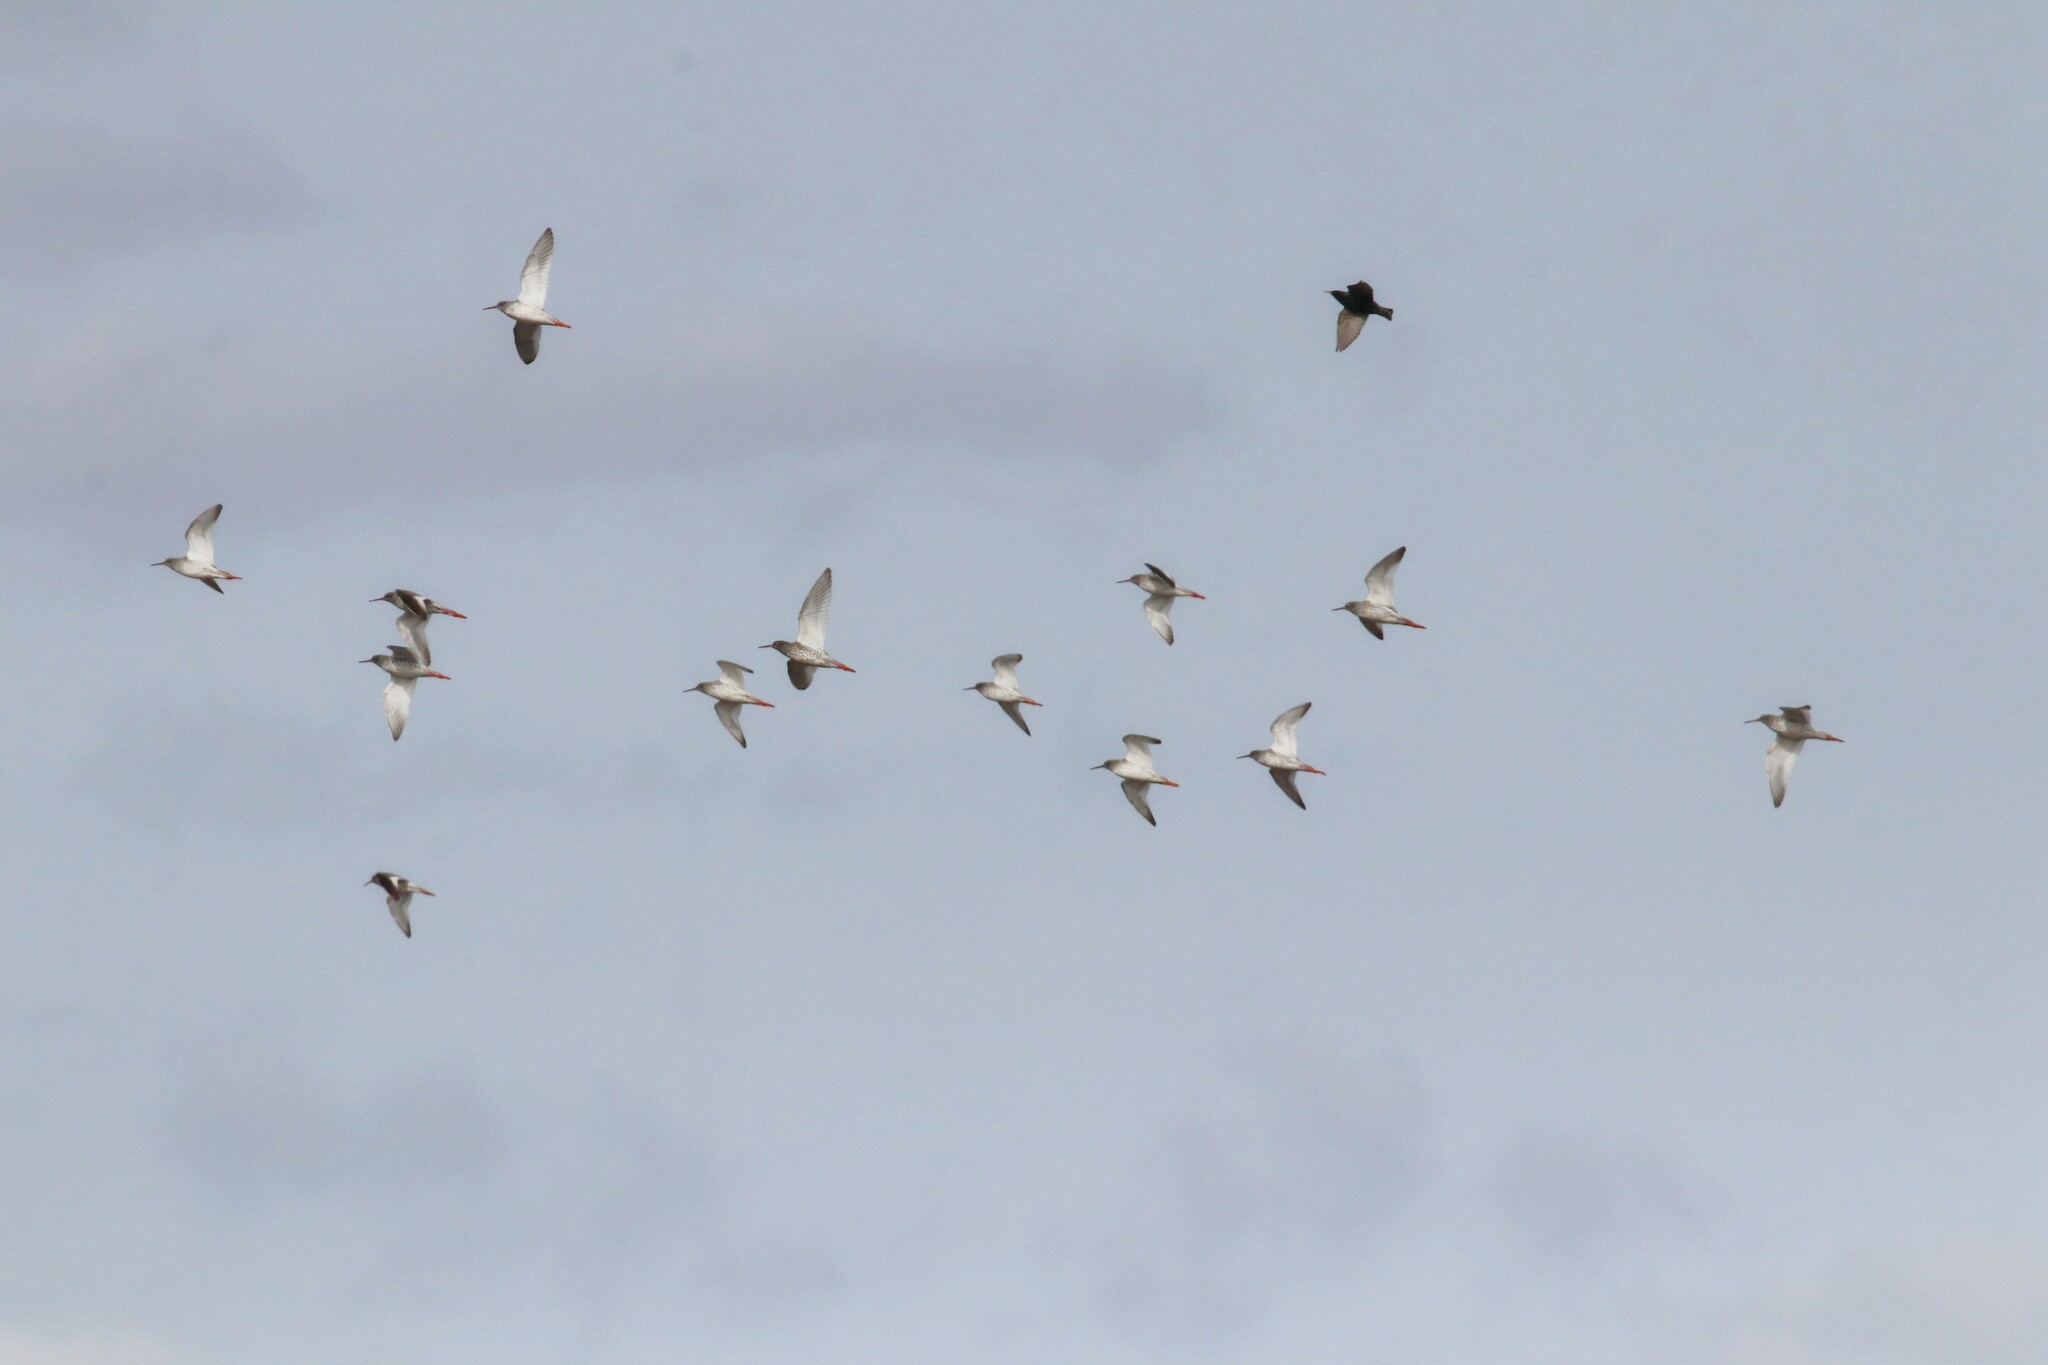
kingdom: Animalia
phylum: Chordata
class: Aves
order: Charadriiformes
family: Scolopacidae
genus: Tringa
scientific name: Tringa totanus
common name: Common redshank
